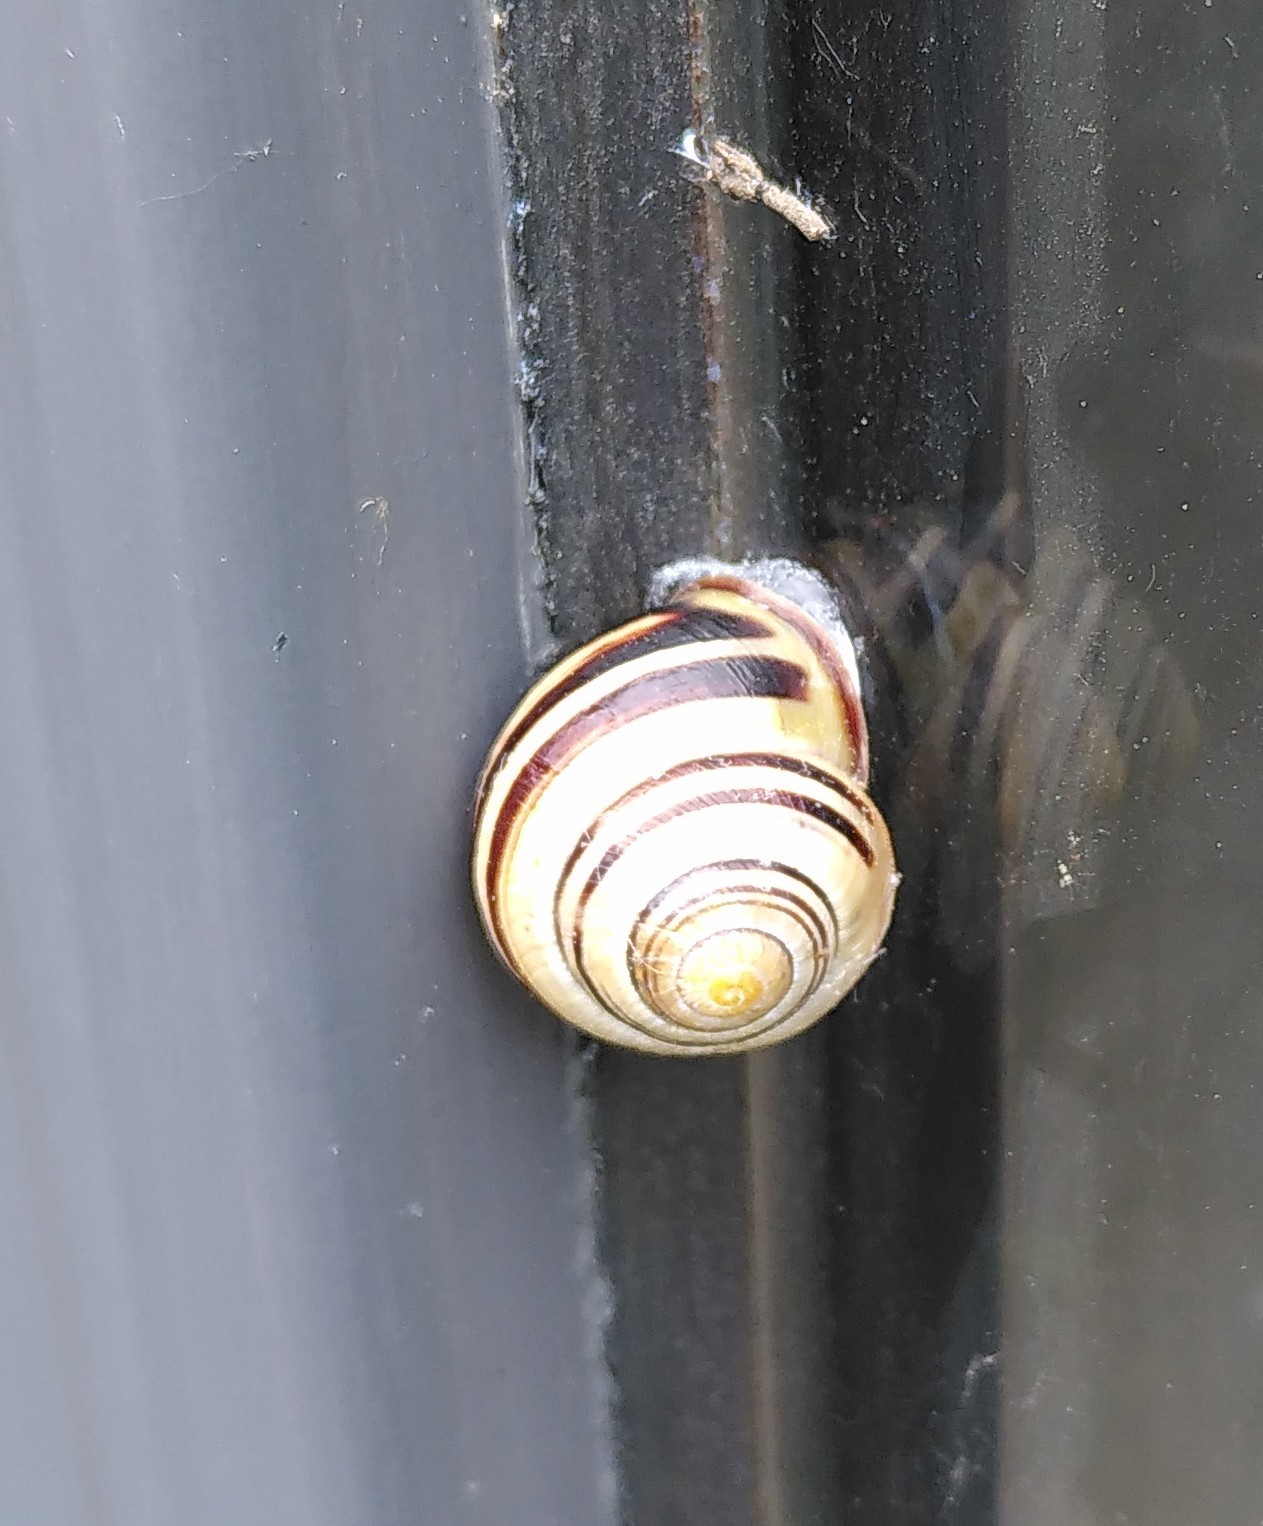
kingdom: Animalia
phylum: Mollusca
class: Gastropoda
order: Stylommatophora
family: Helicidae
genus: Cepaea
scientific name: Cepaea nemoralis
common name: Grovesnail
